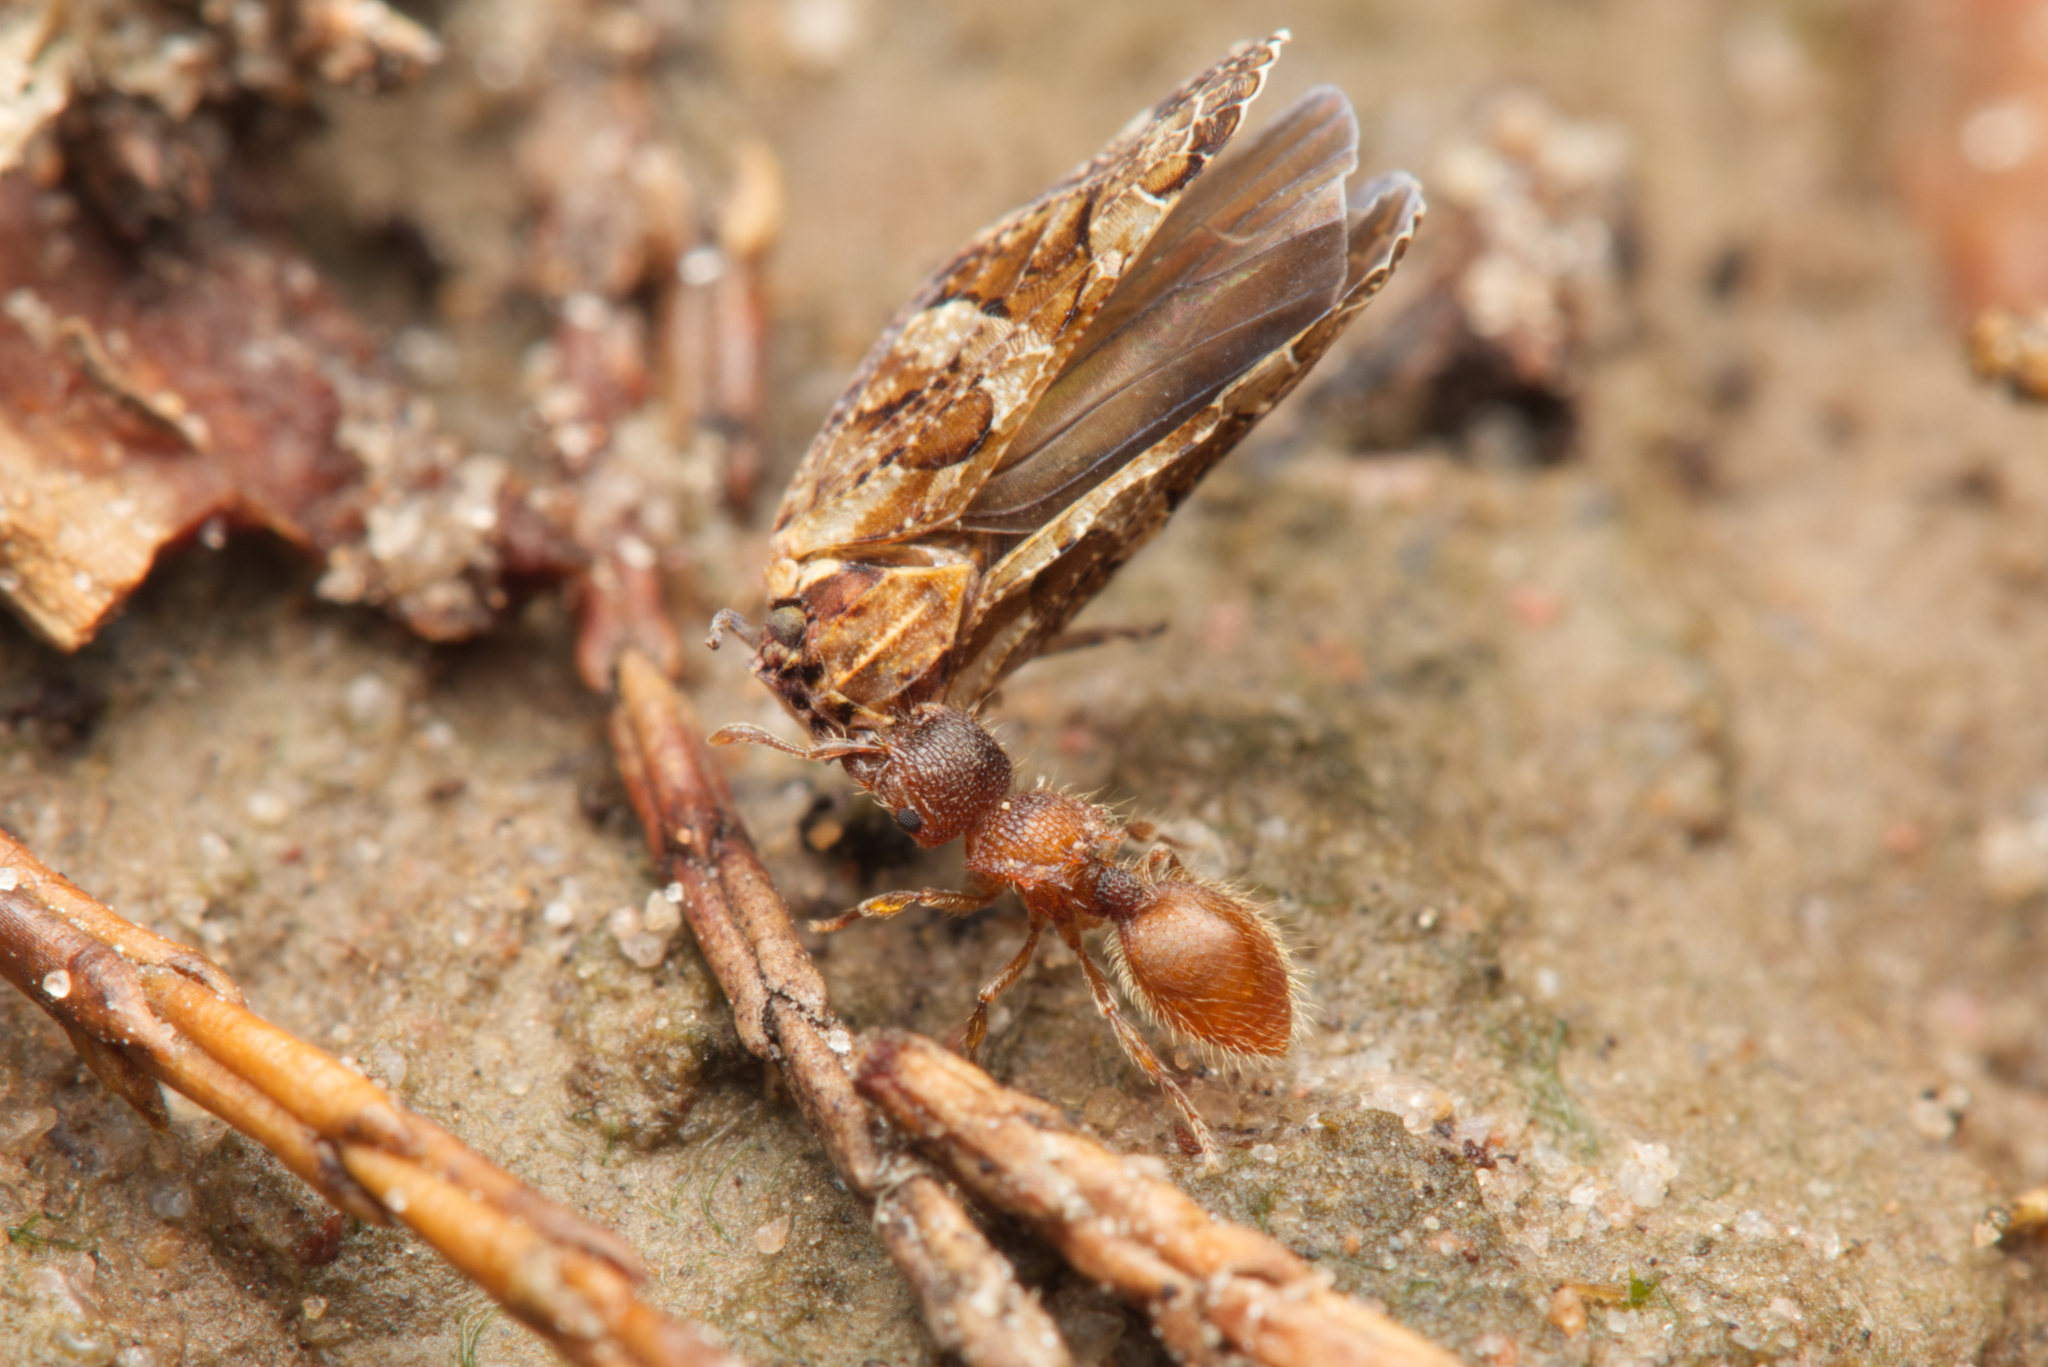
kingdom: Animalia
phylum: Arthropoda
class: Insecta
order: Hymenoptera
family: Formicidae
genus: Meranoplus
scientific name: Meranoplus froggatti
